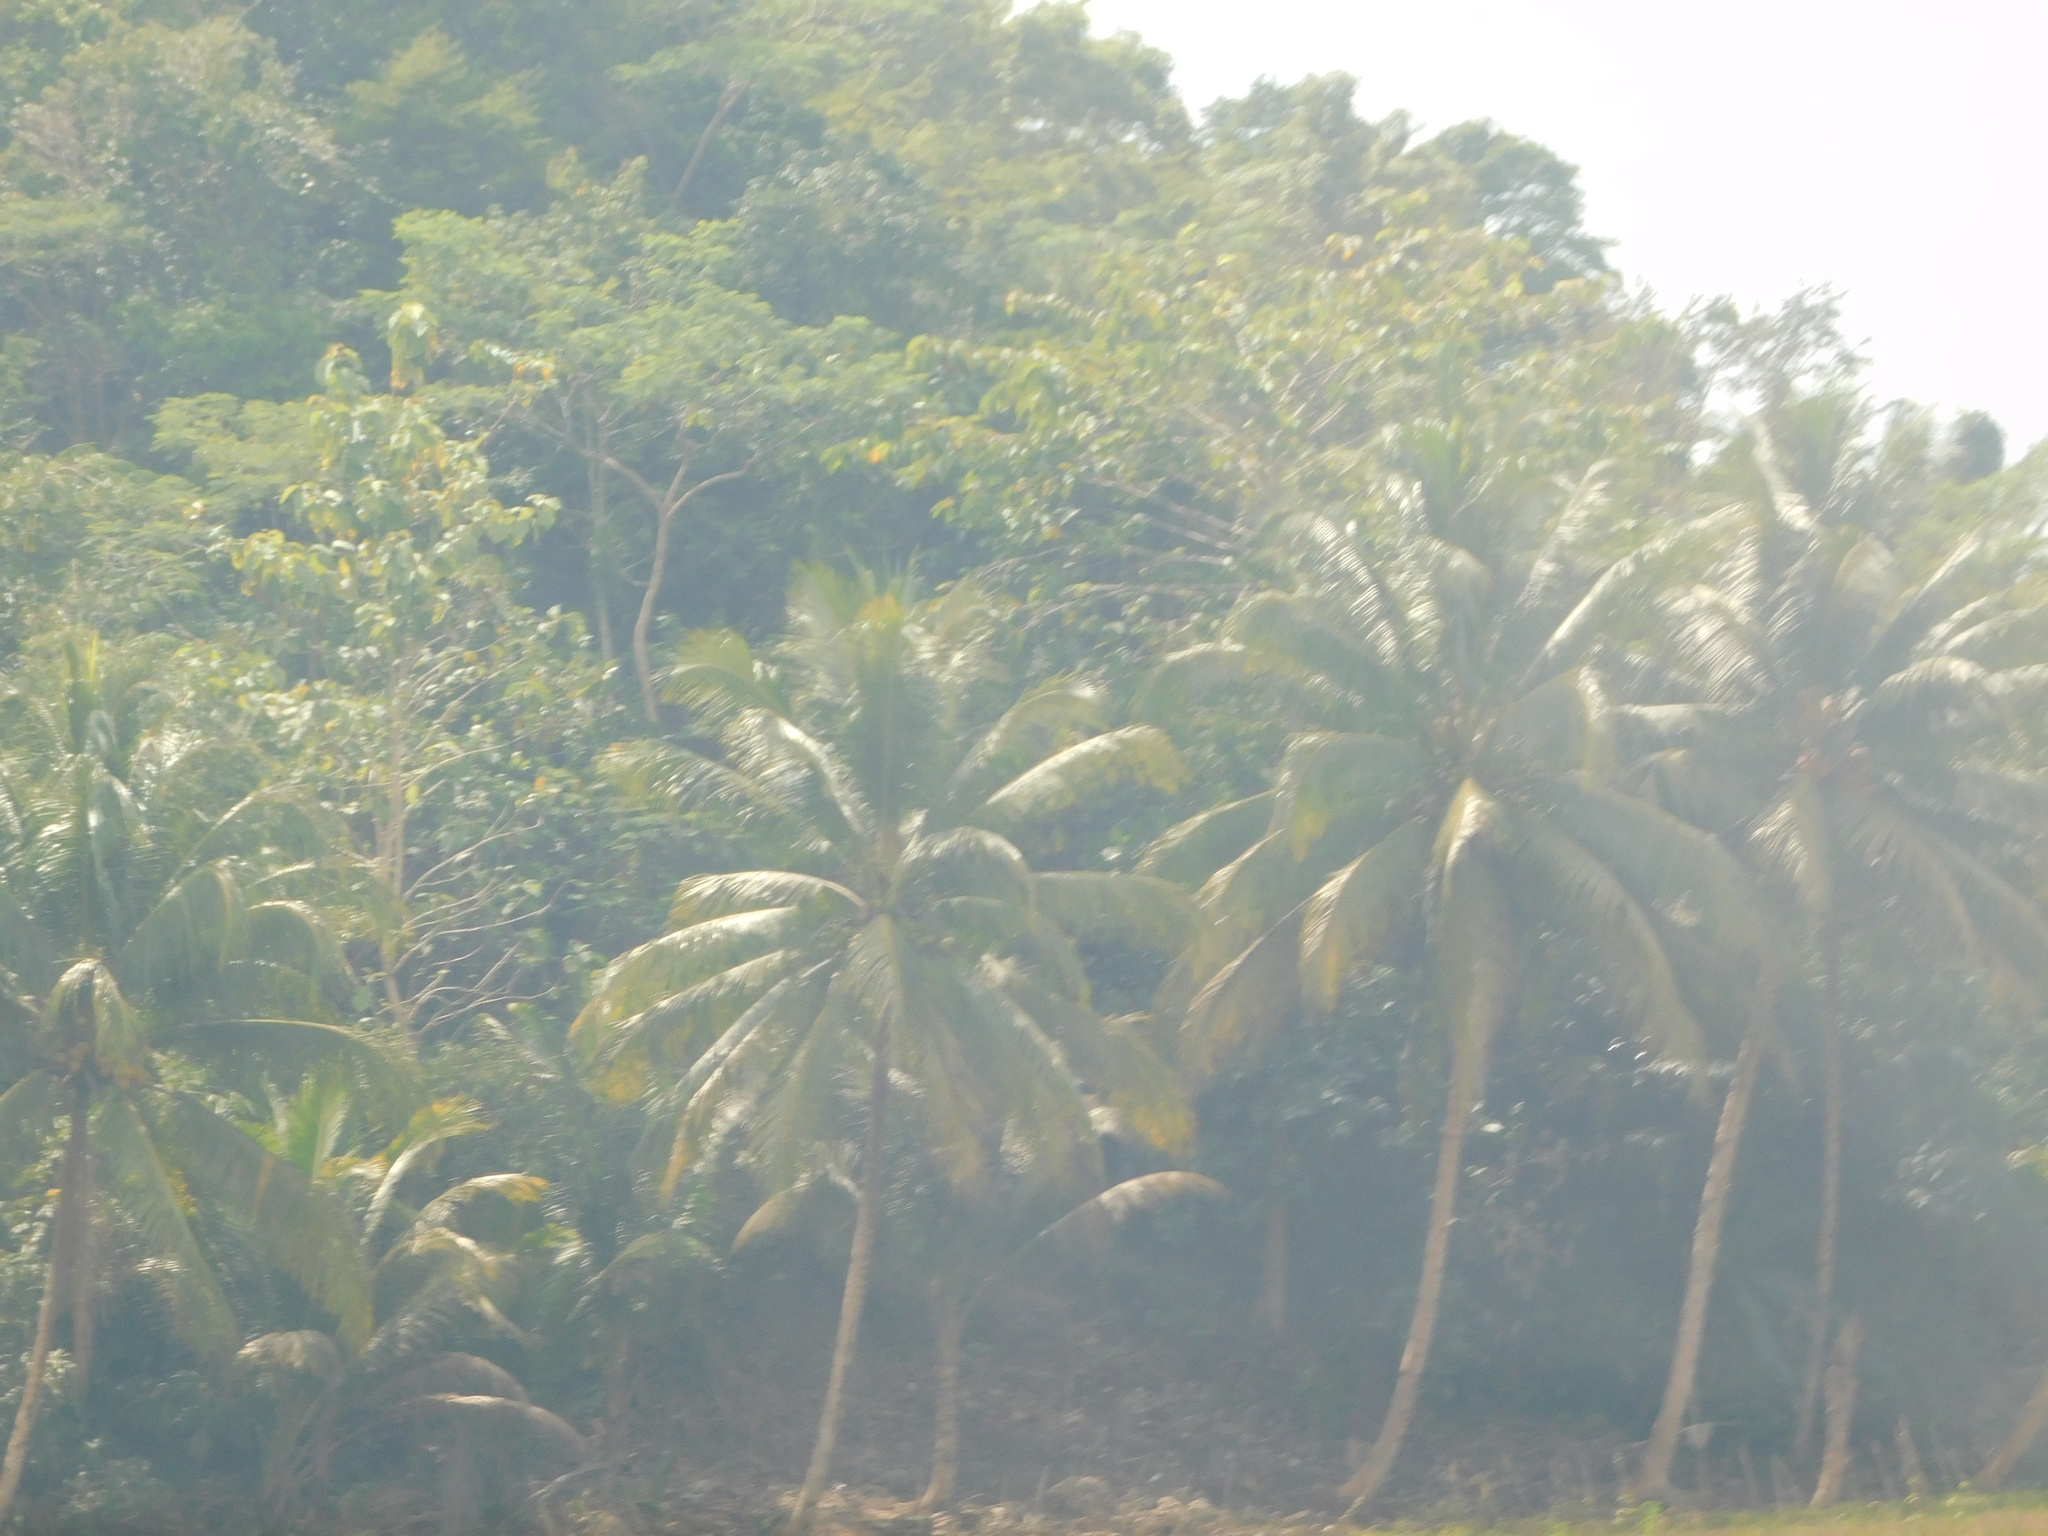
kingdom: Plantae
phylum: Tracheophyta
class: Liliopsida
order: Arecales
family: Arecaceae
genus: Cocos
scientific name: Cocos nucifera
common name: Coconut palm
